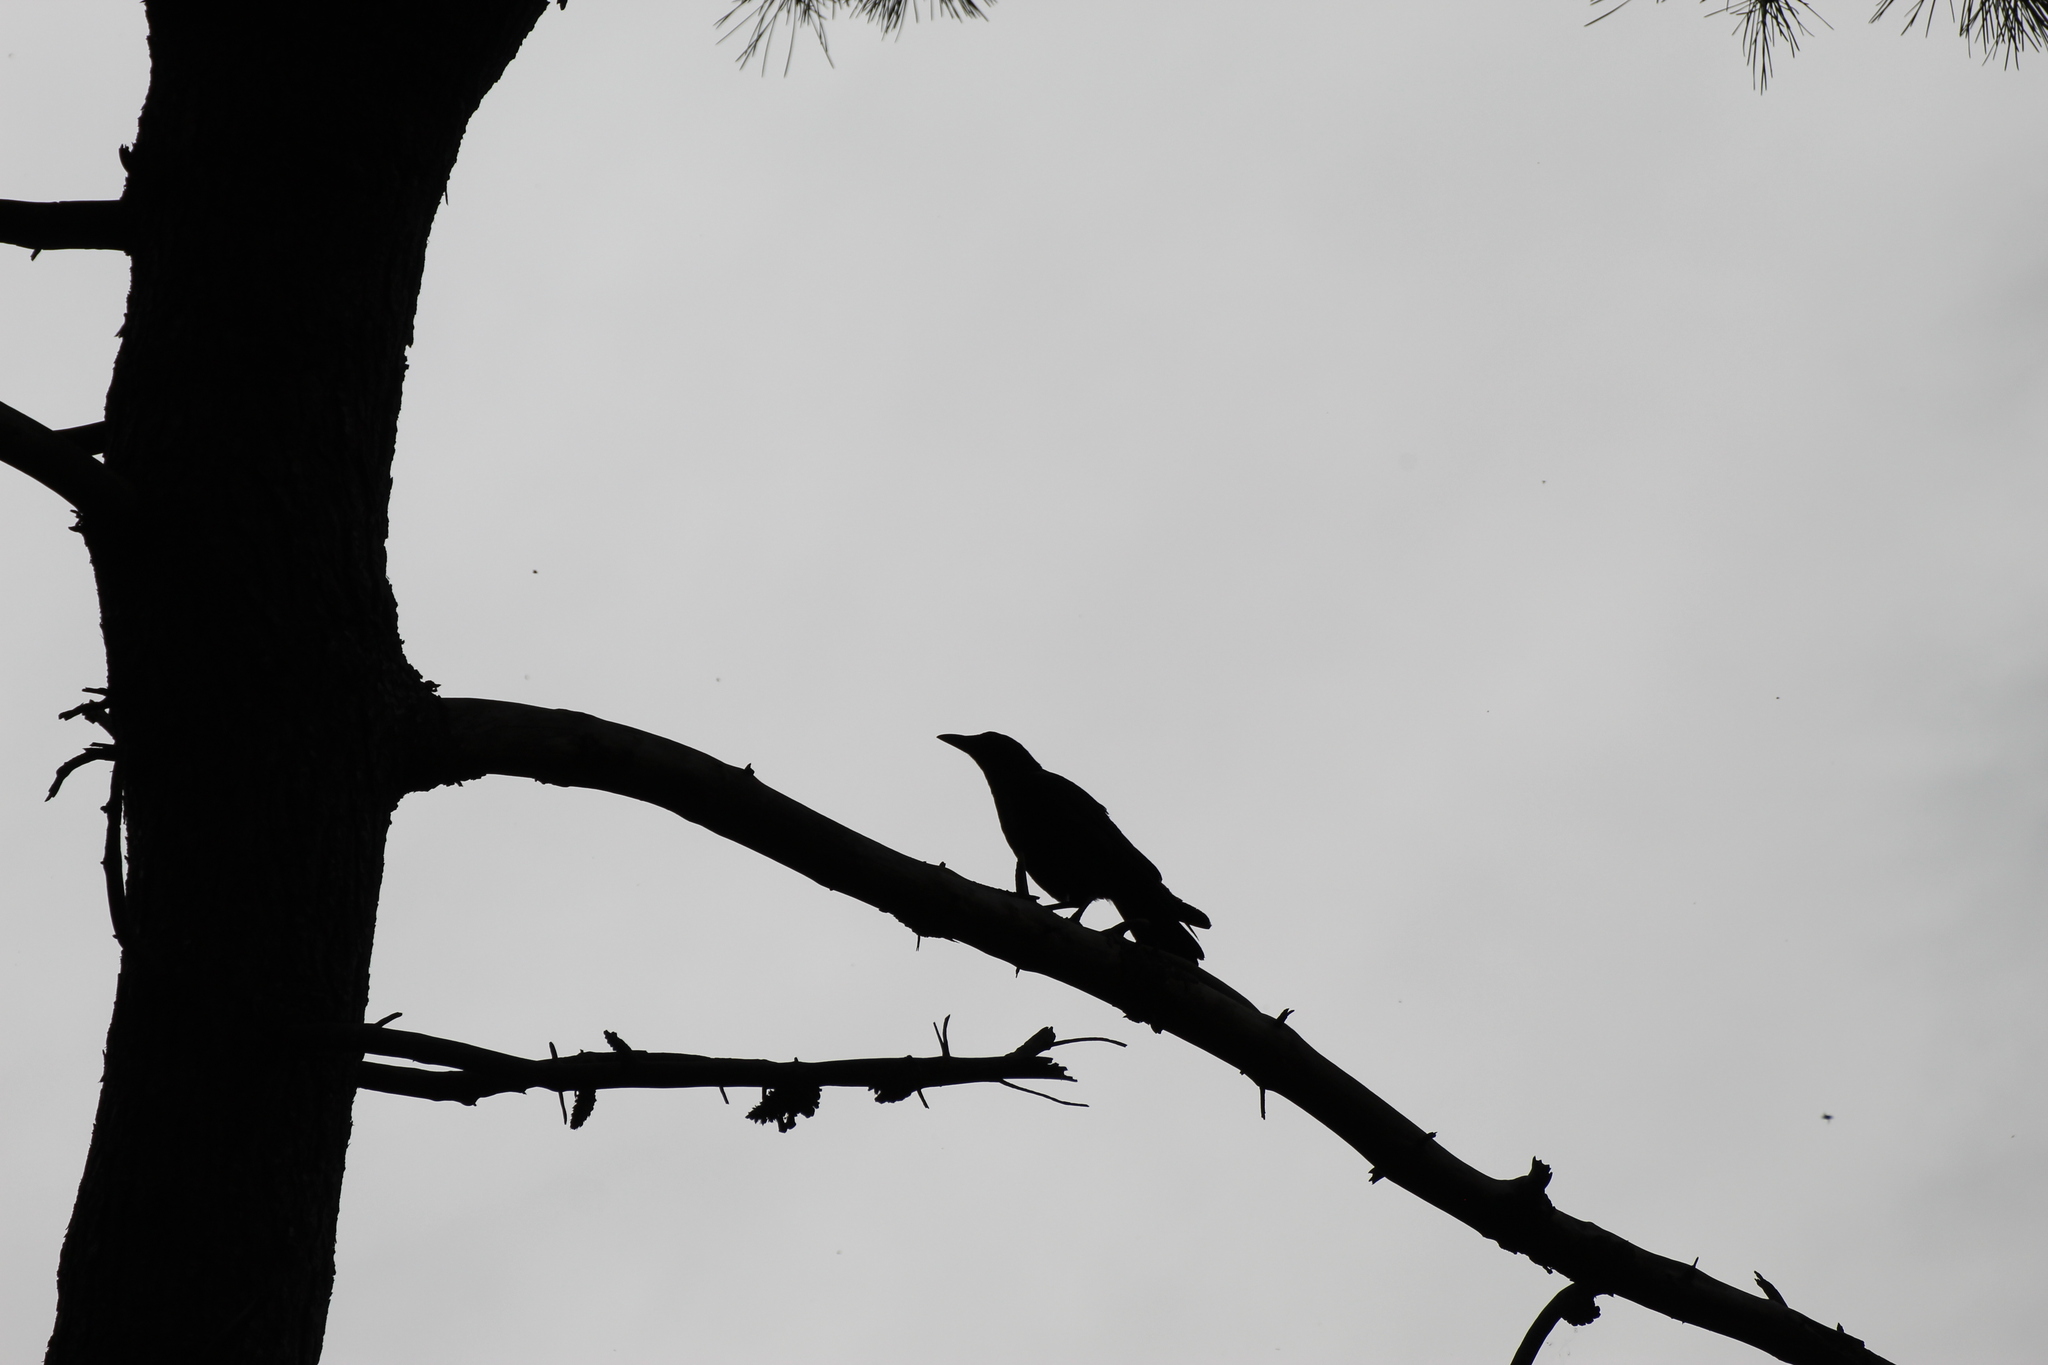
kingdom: Animalia
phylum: Chordata
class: Aves
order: Passeriformes
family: Corvidae
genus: Corvus
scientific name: Corvus corone
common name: Carrion crow
